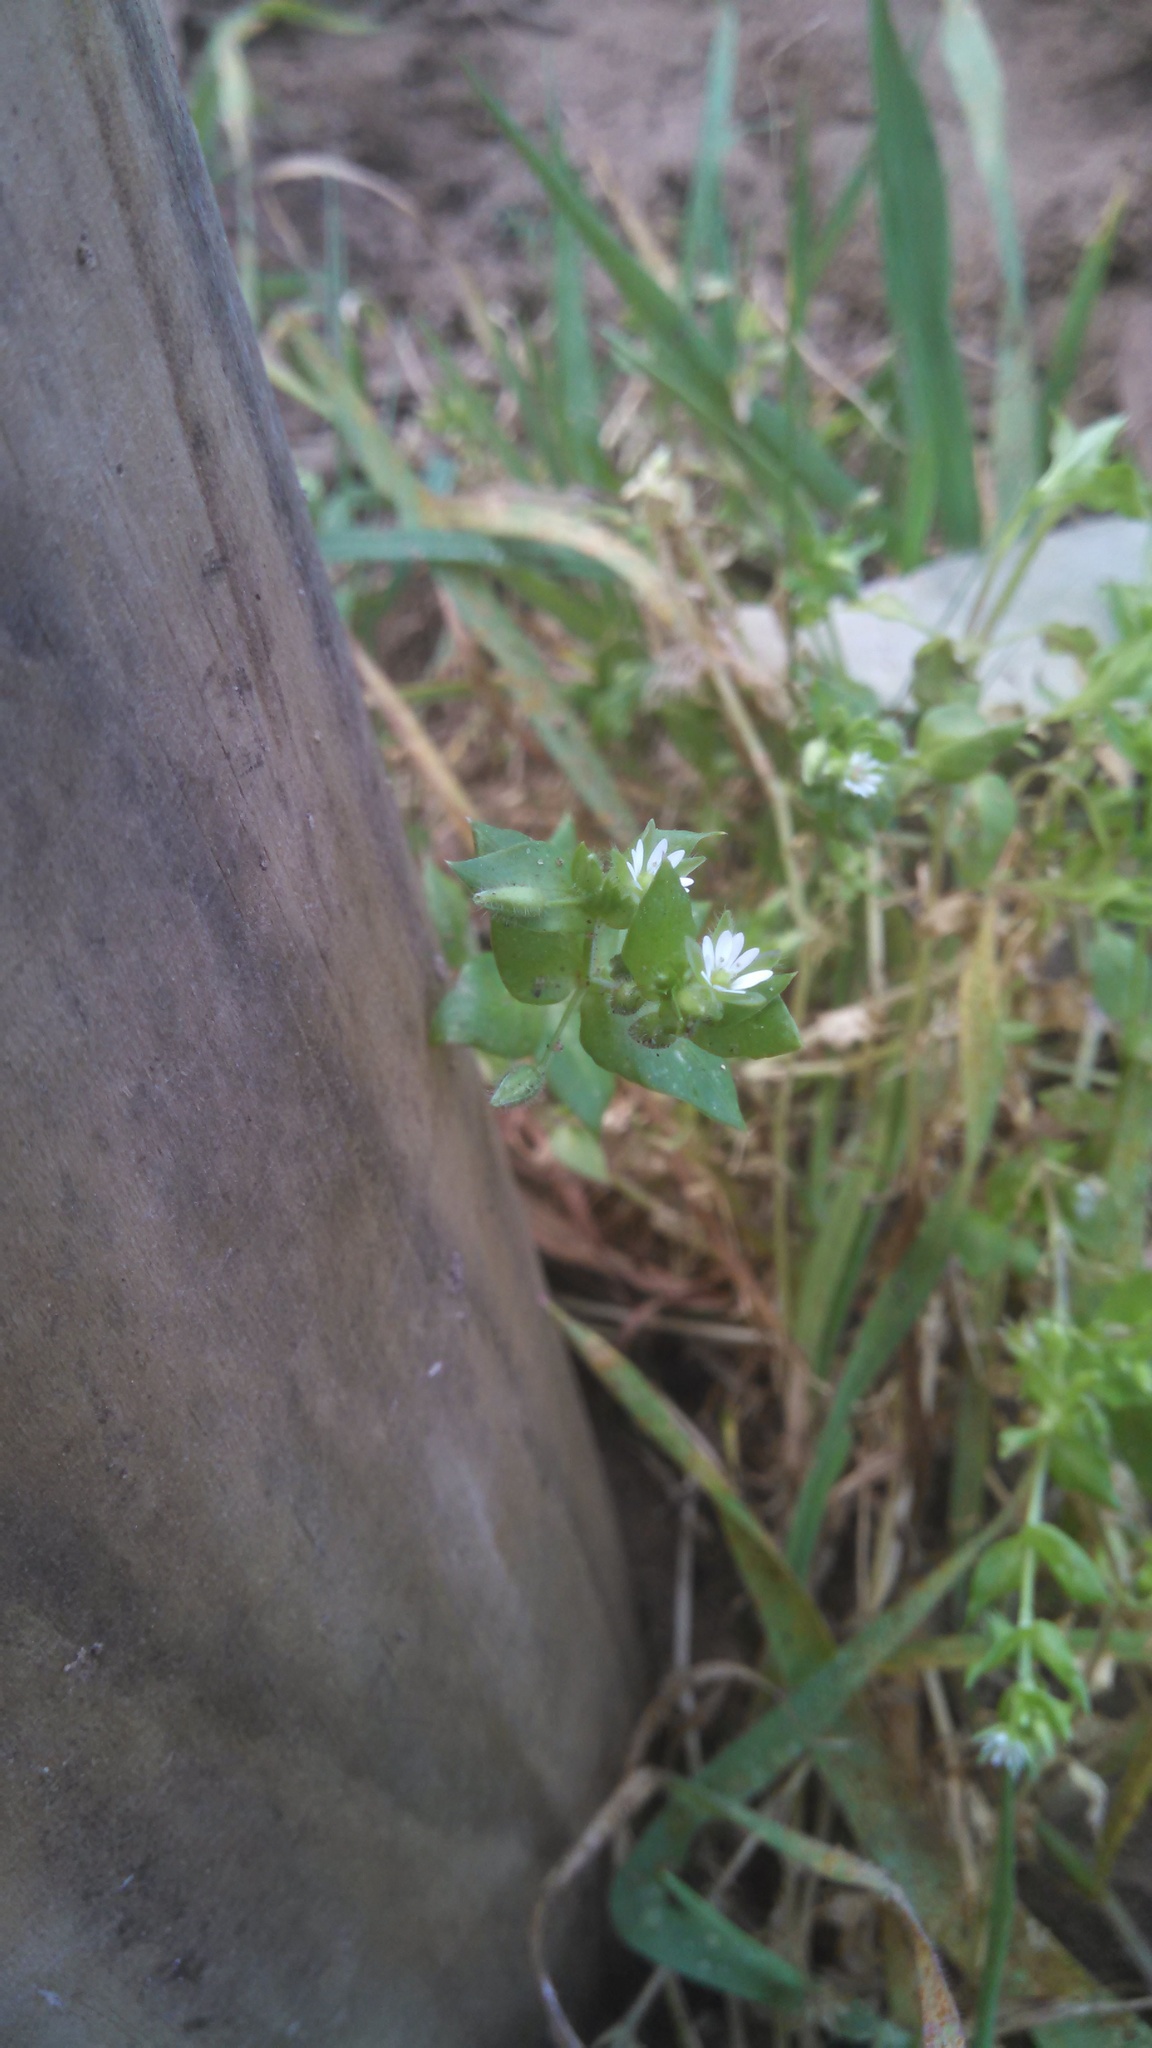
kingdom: Plantae
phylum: Tracheophyta
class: Magnoliopsida
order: Caryophyllales
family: Caryophyllaceae
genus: Stellaria
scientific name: Stellaria media
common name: Common chickweed
